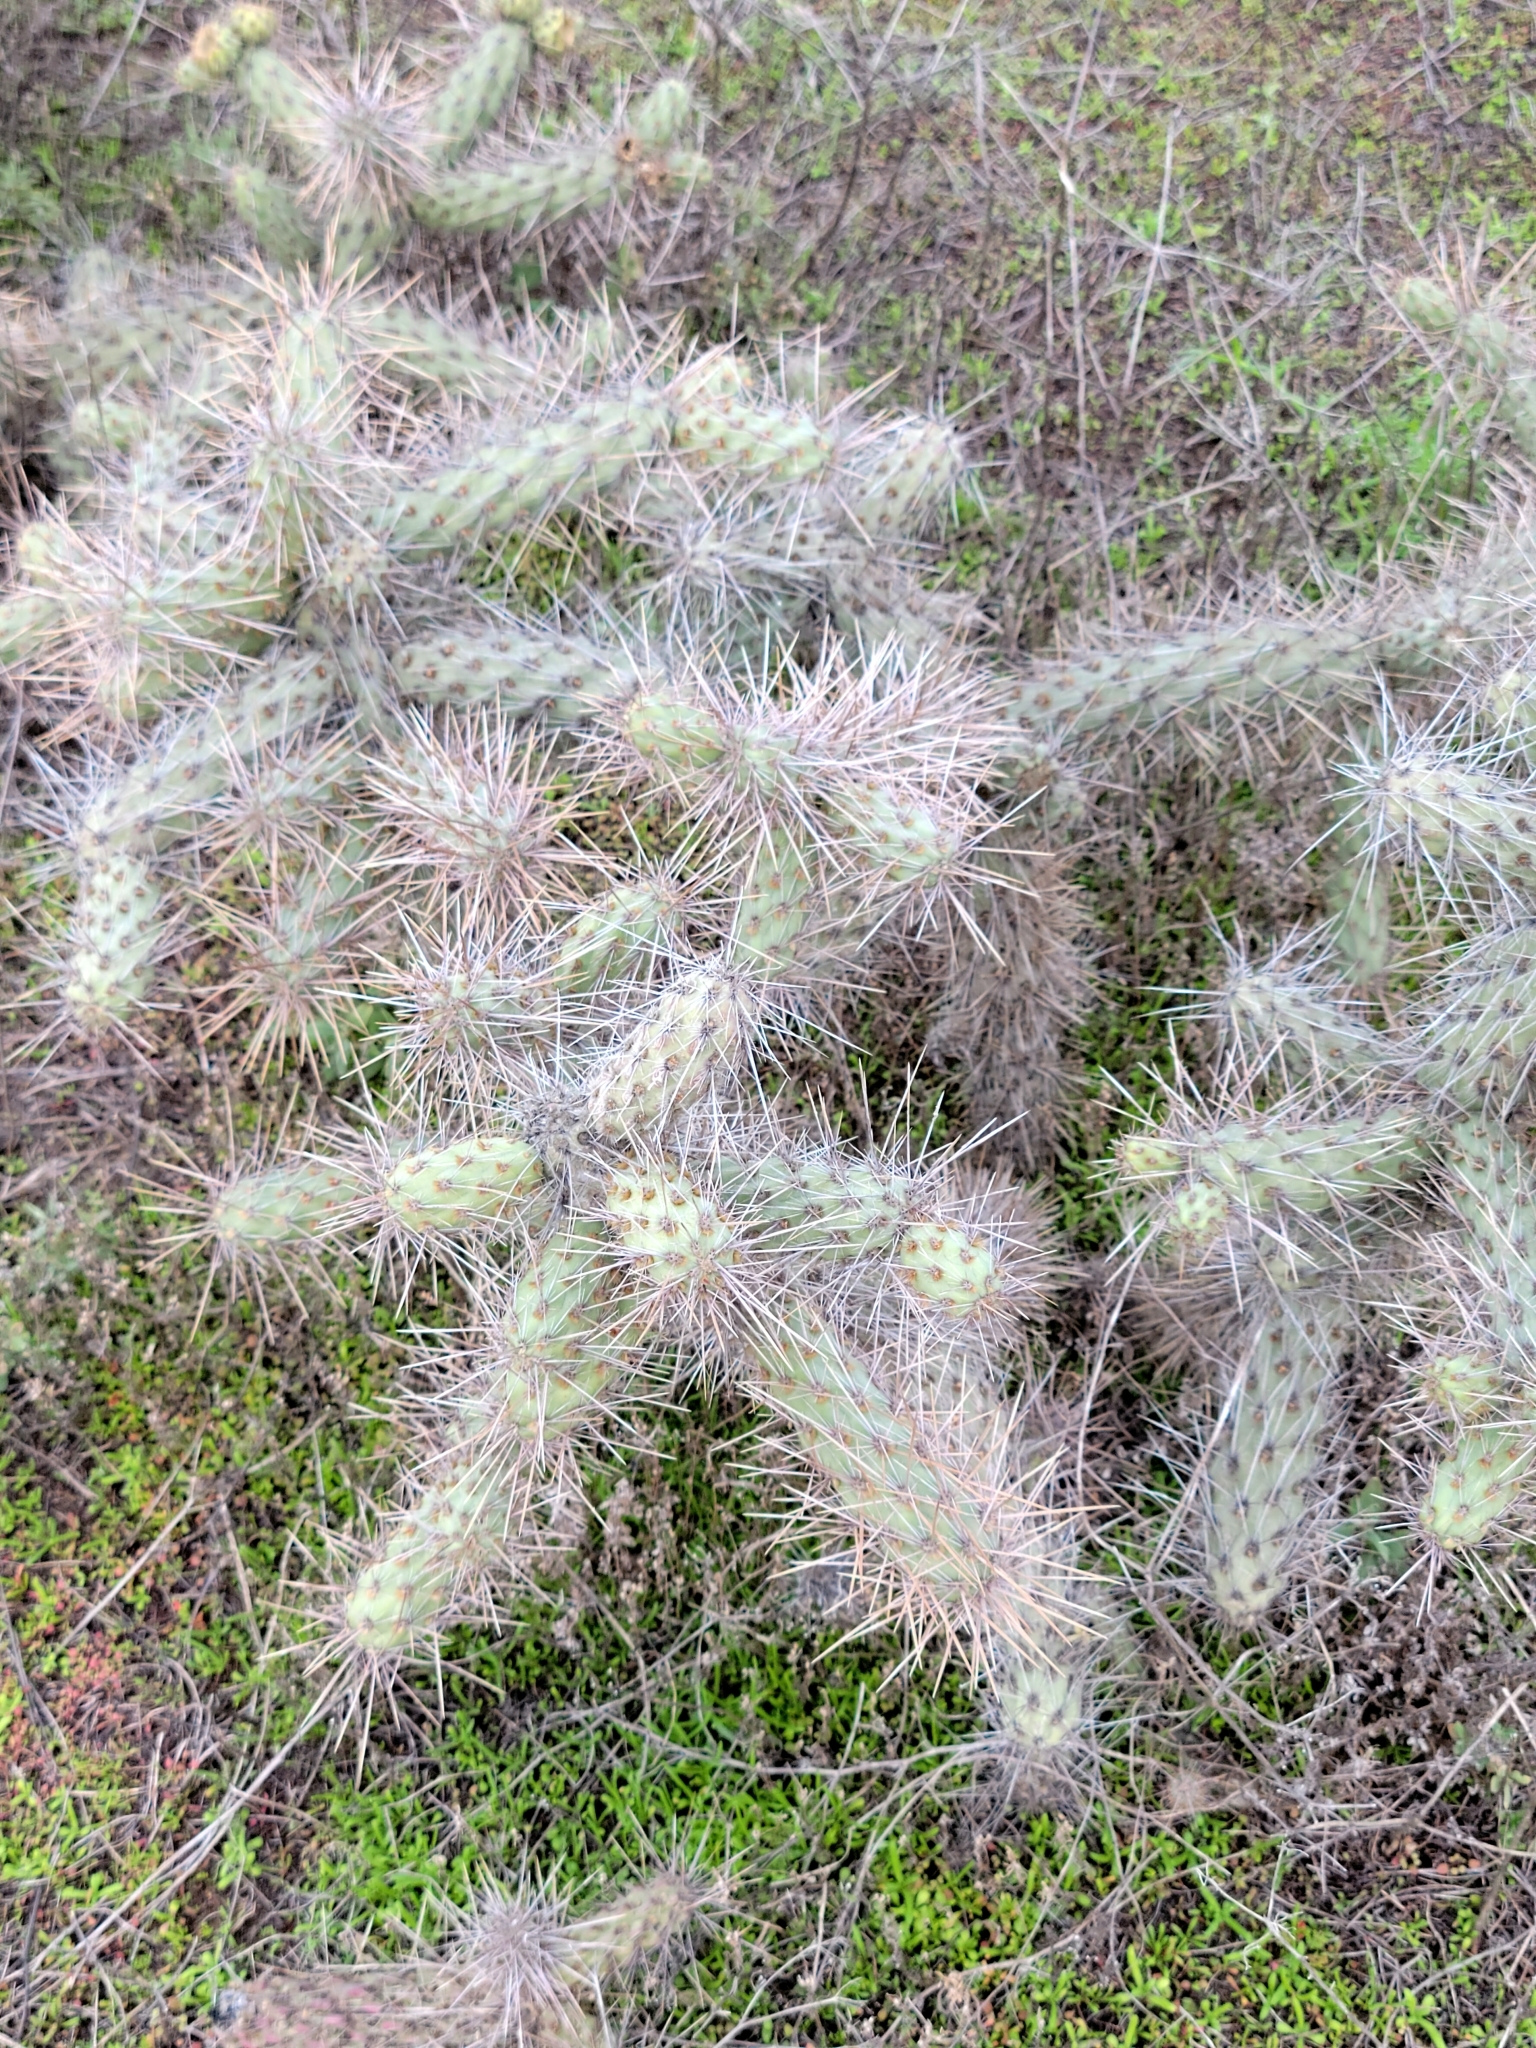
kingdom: Plantae
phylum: Tracheophyta
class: Magnoliopsida
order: Caryophyllales
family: Cactaceae
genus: Cylindropuntia
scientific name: Cylindropuntia prolifera
